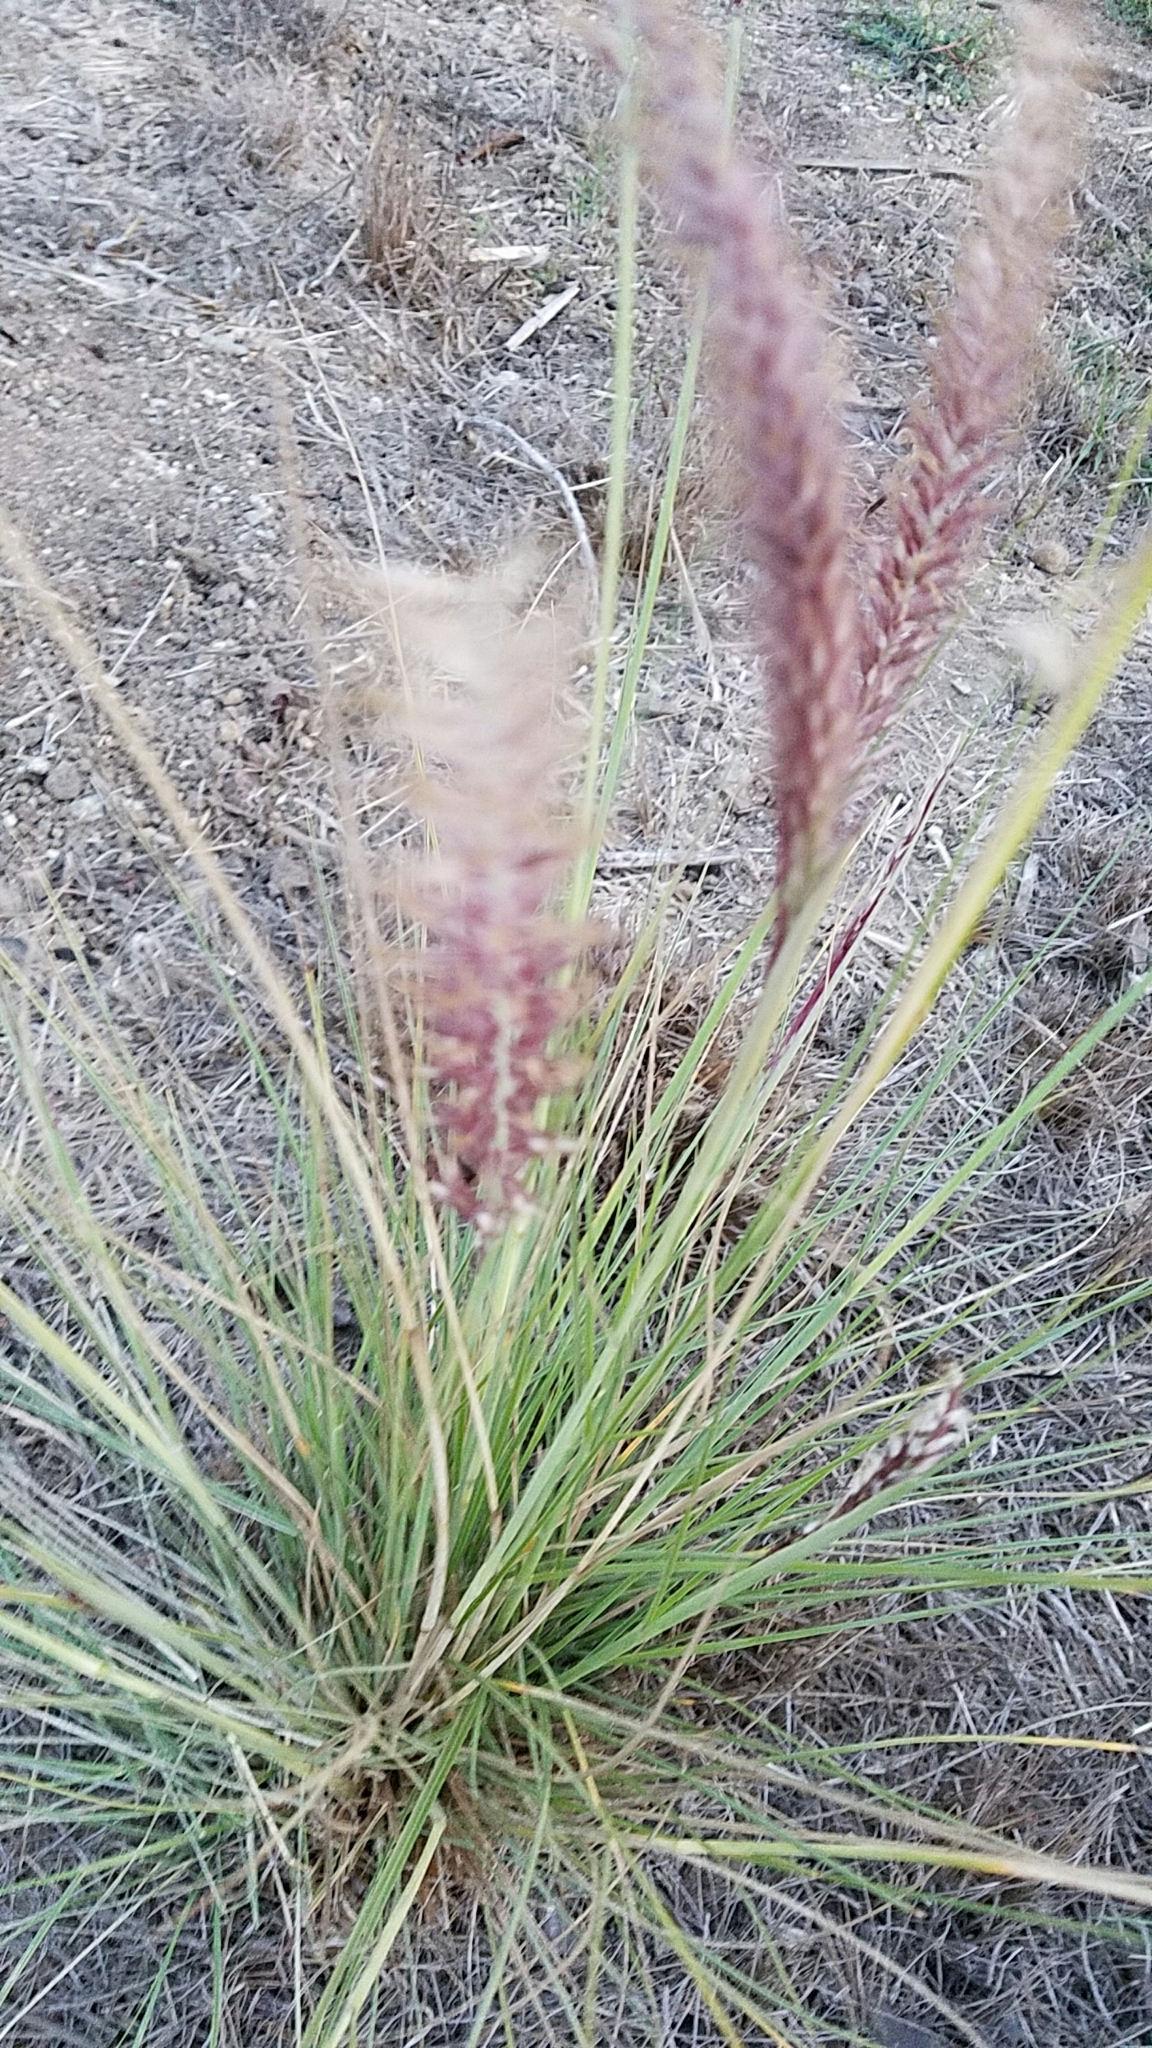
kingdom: Plantae
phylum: Tracheophyta
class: Liliopsida
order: Poales
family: Poaceae
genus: Cenchrus
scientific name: Cenchrus setaceus
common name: Crimson fountaingrass
